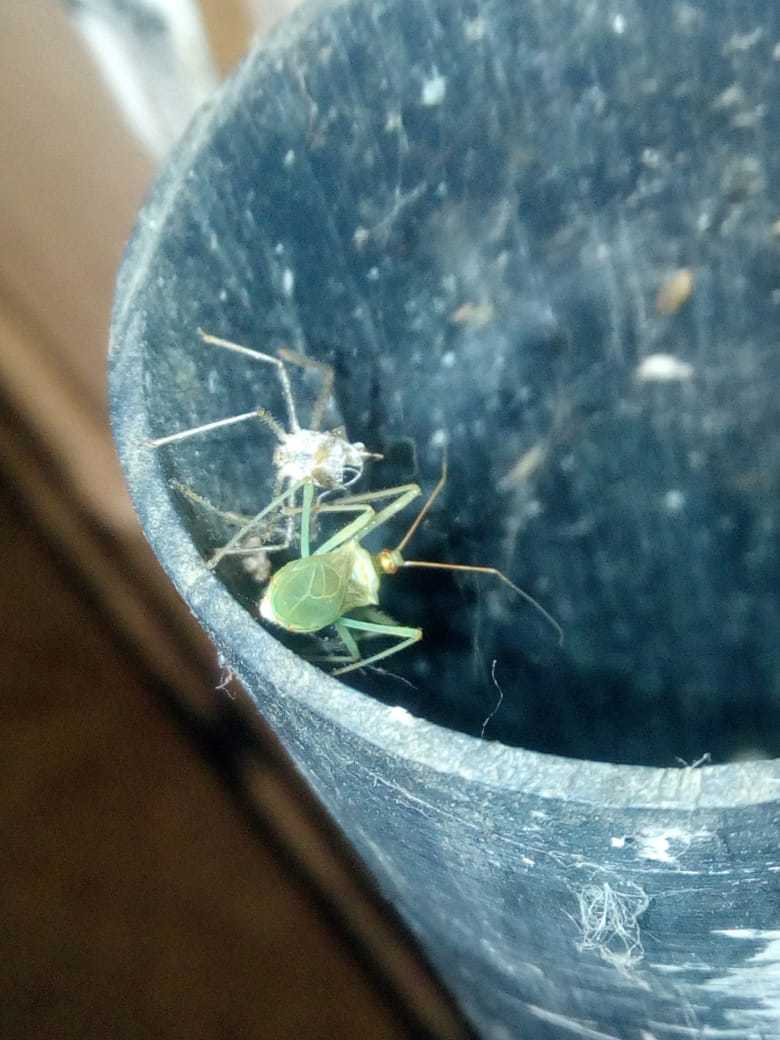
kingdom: Animalia
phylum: Arthropoda
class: Insecta
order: Hemiptera
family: Reduviidae
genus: Zelus
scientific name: Zelus renardii
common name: Assassin bug
